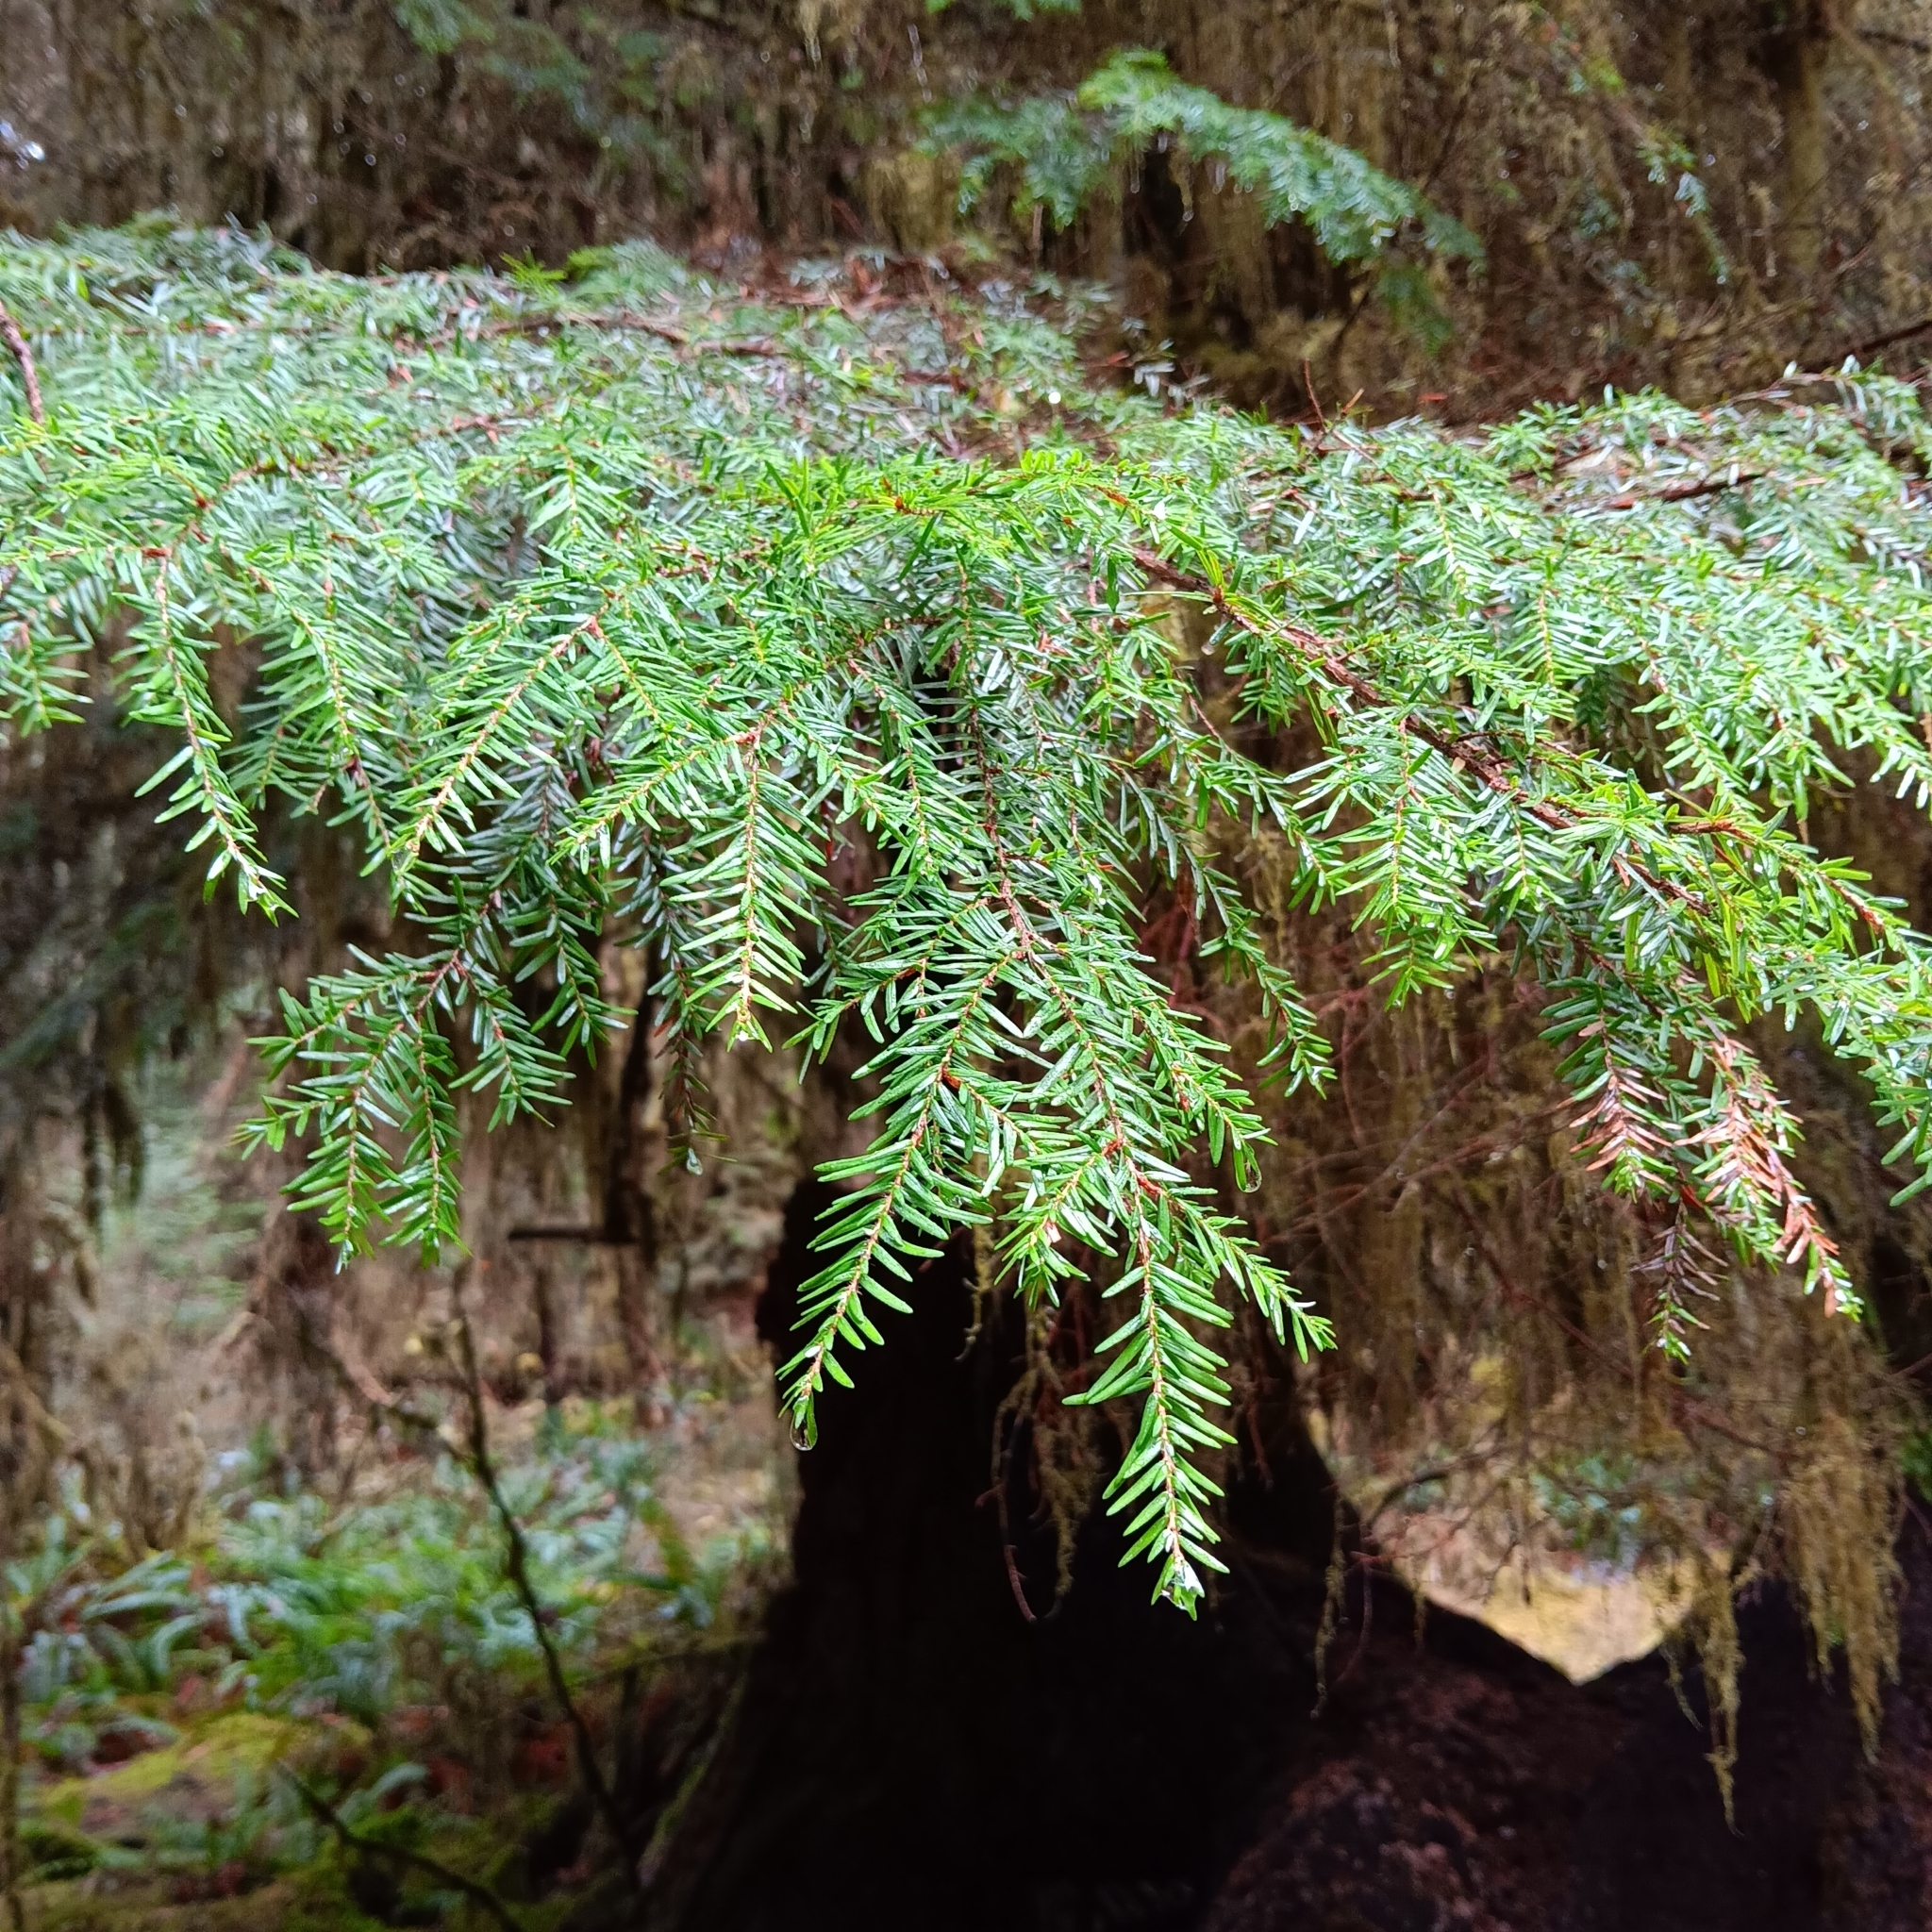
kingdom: Plantae
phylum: Tracheophyta
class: Pinopsida
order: Pinales
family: Pinaceae
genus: Tsuga
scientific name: Tsuga heterophylla
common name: Western hemlock
